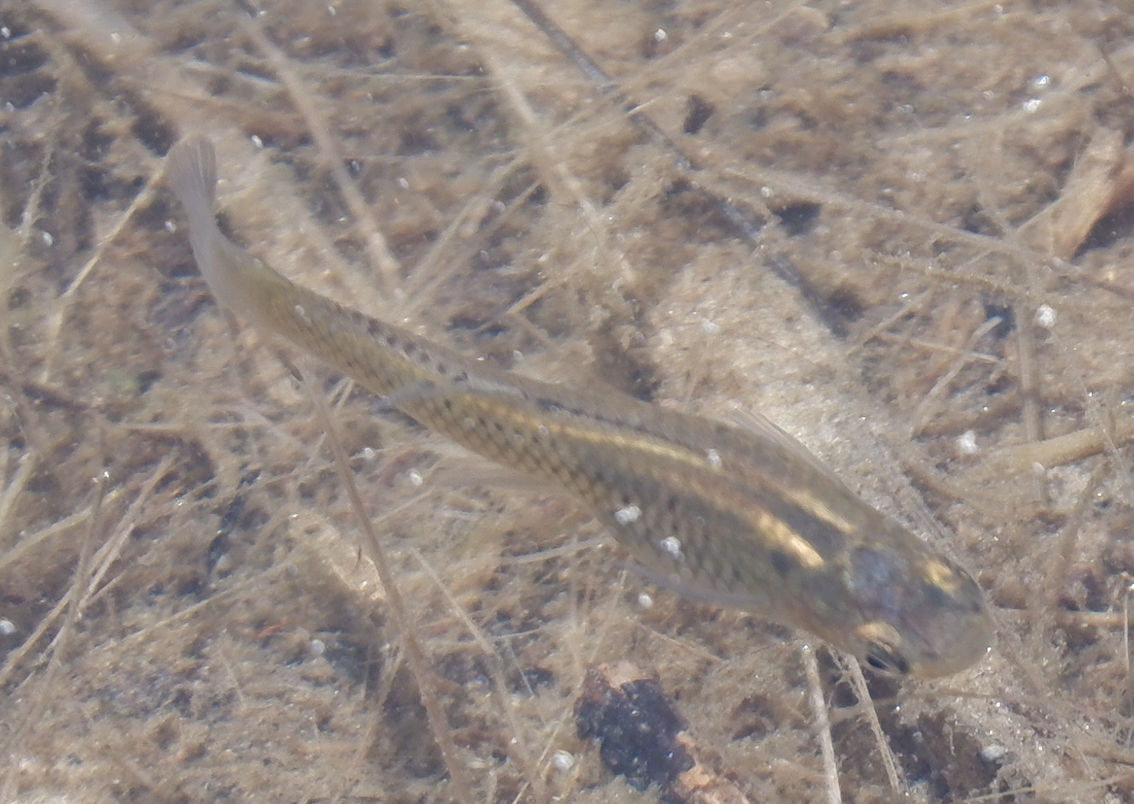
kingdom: Animalia
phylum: Chordata
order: Cyprinodontiformes
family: Poeciliidae
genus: Gambusia
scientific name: Gambusia holbrooki
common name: Eastern mosquitofish
